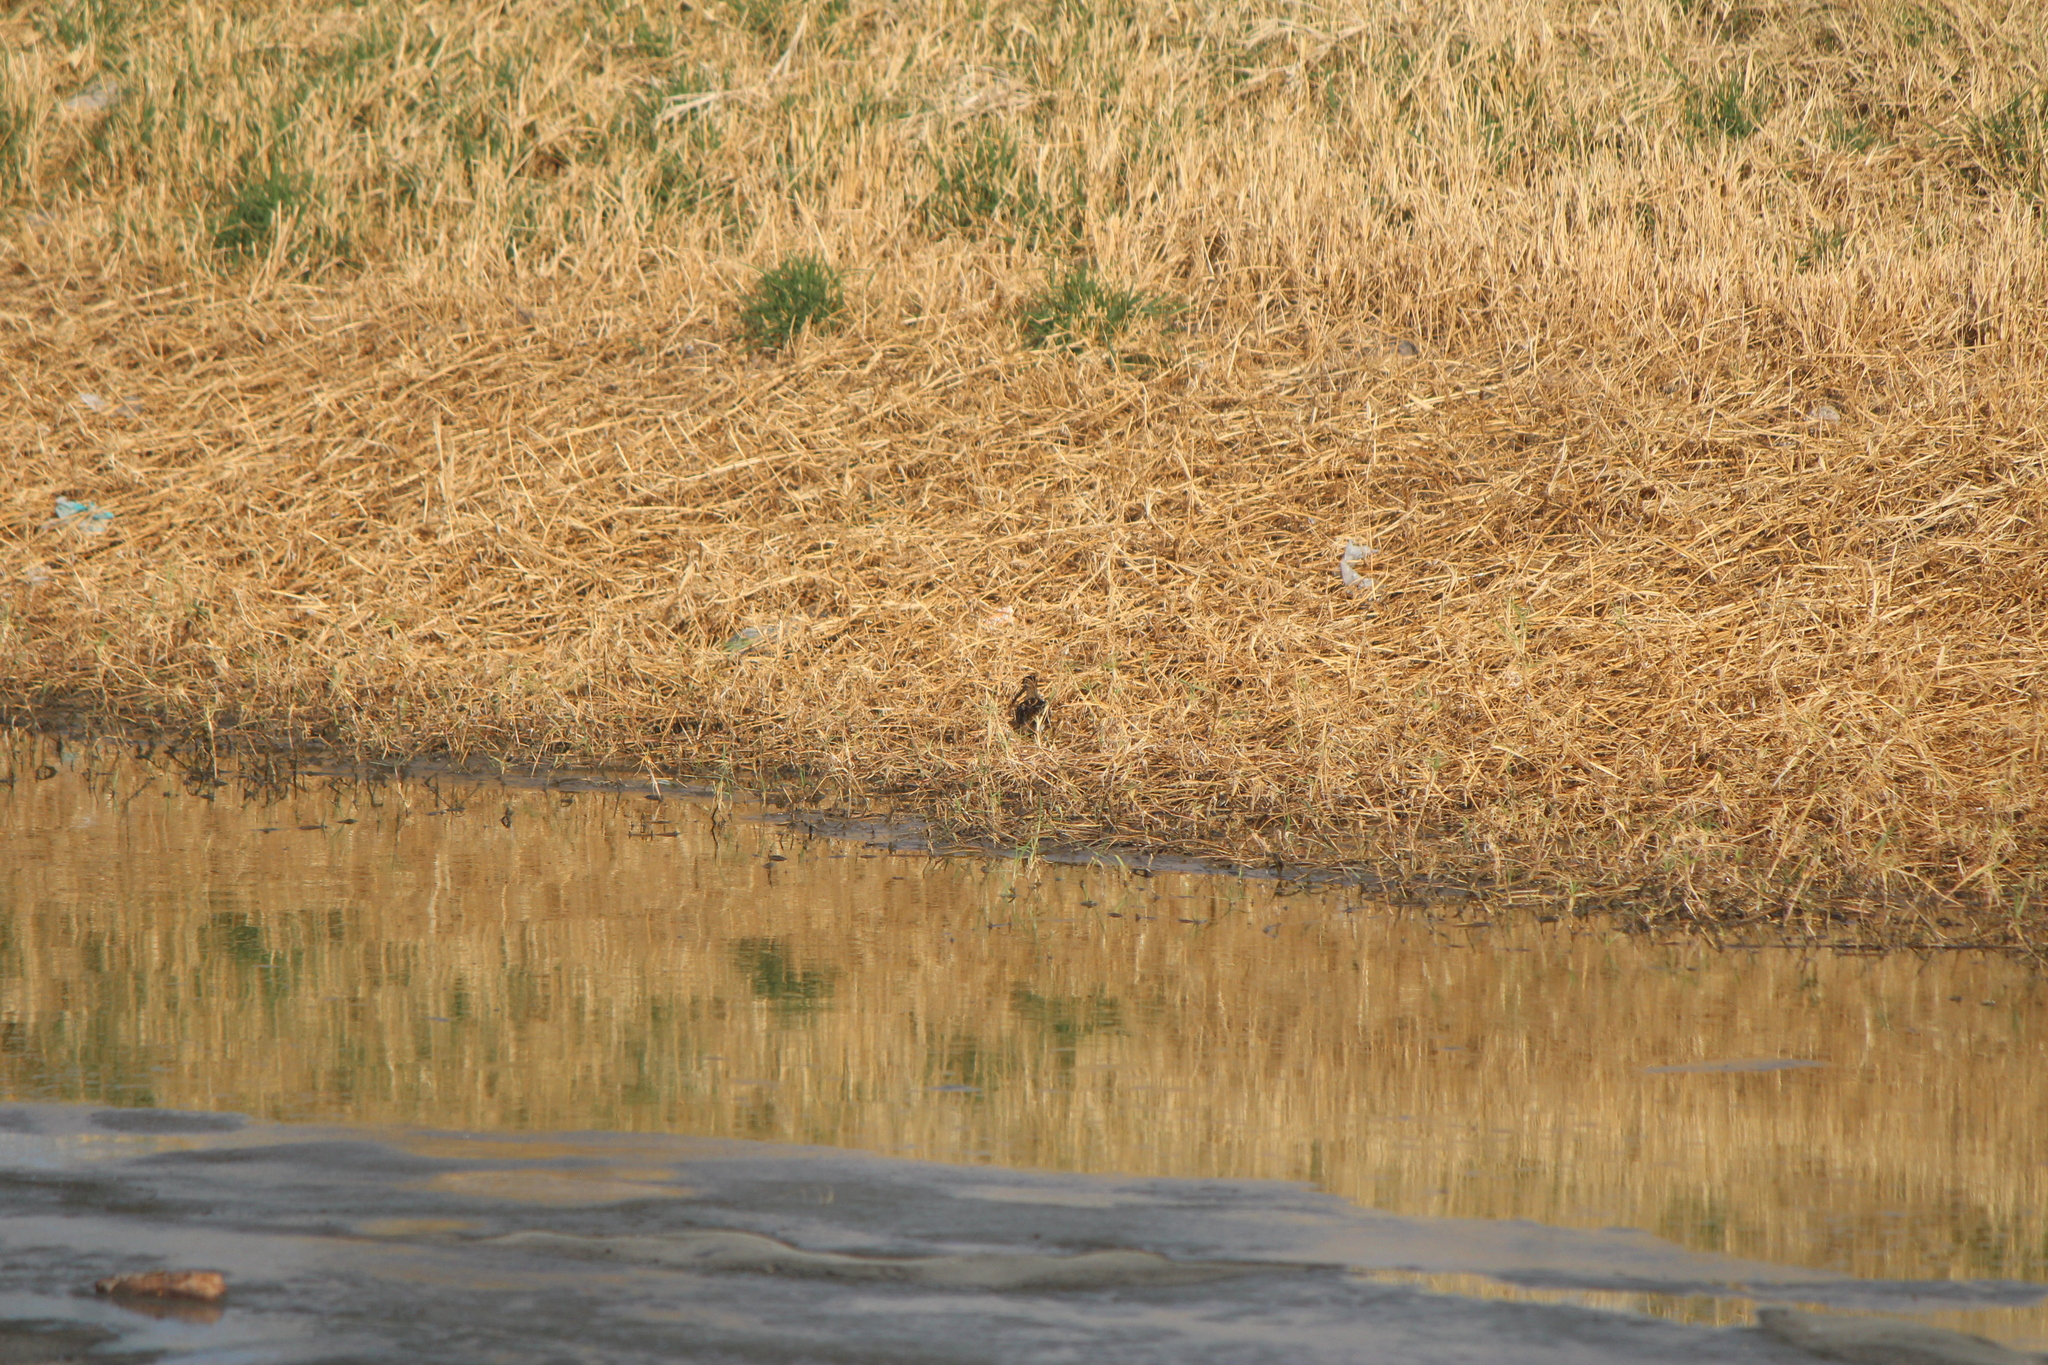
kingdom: Animalia
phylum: Chordata
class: Aves
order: Charadriiformes
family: Scolopacidae
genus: Gallinago
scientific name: Gallinago delicata
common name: Wilson's snipe
